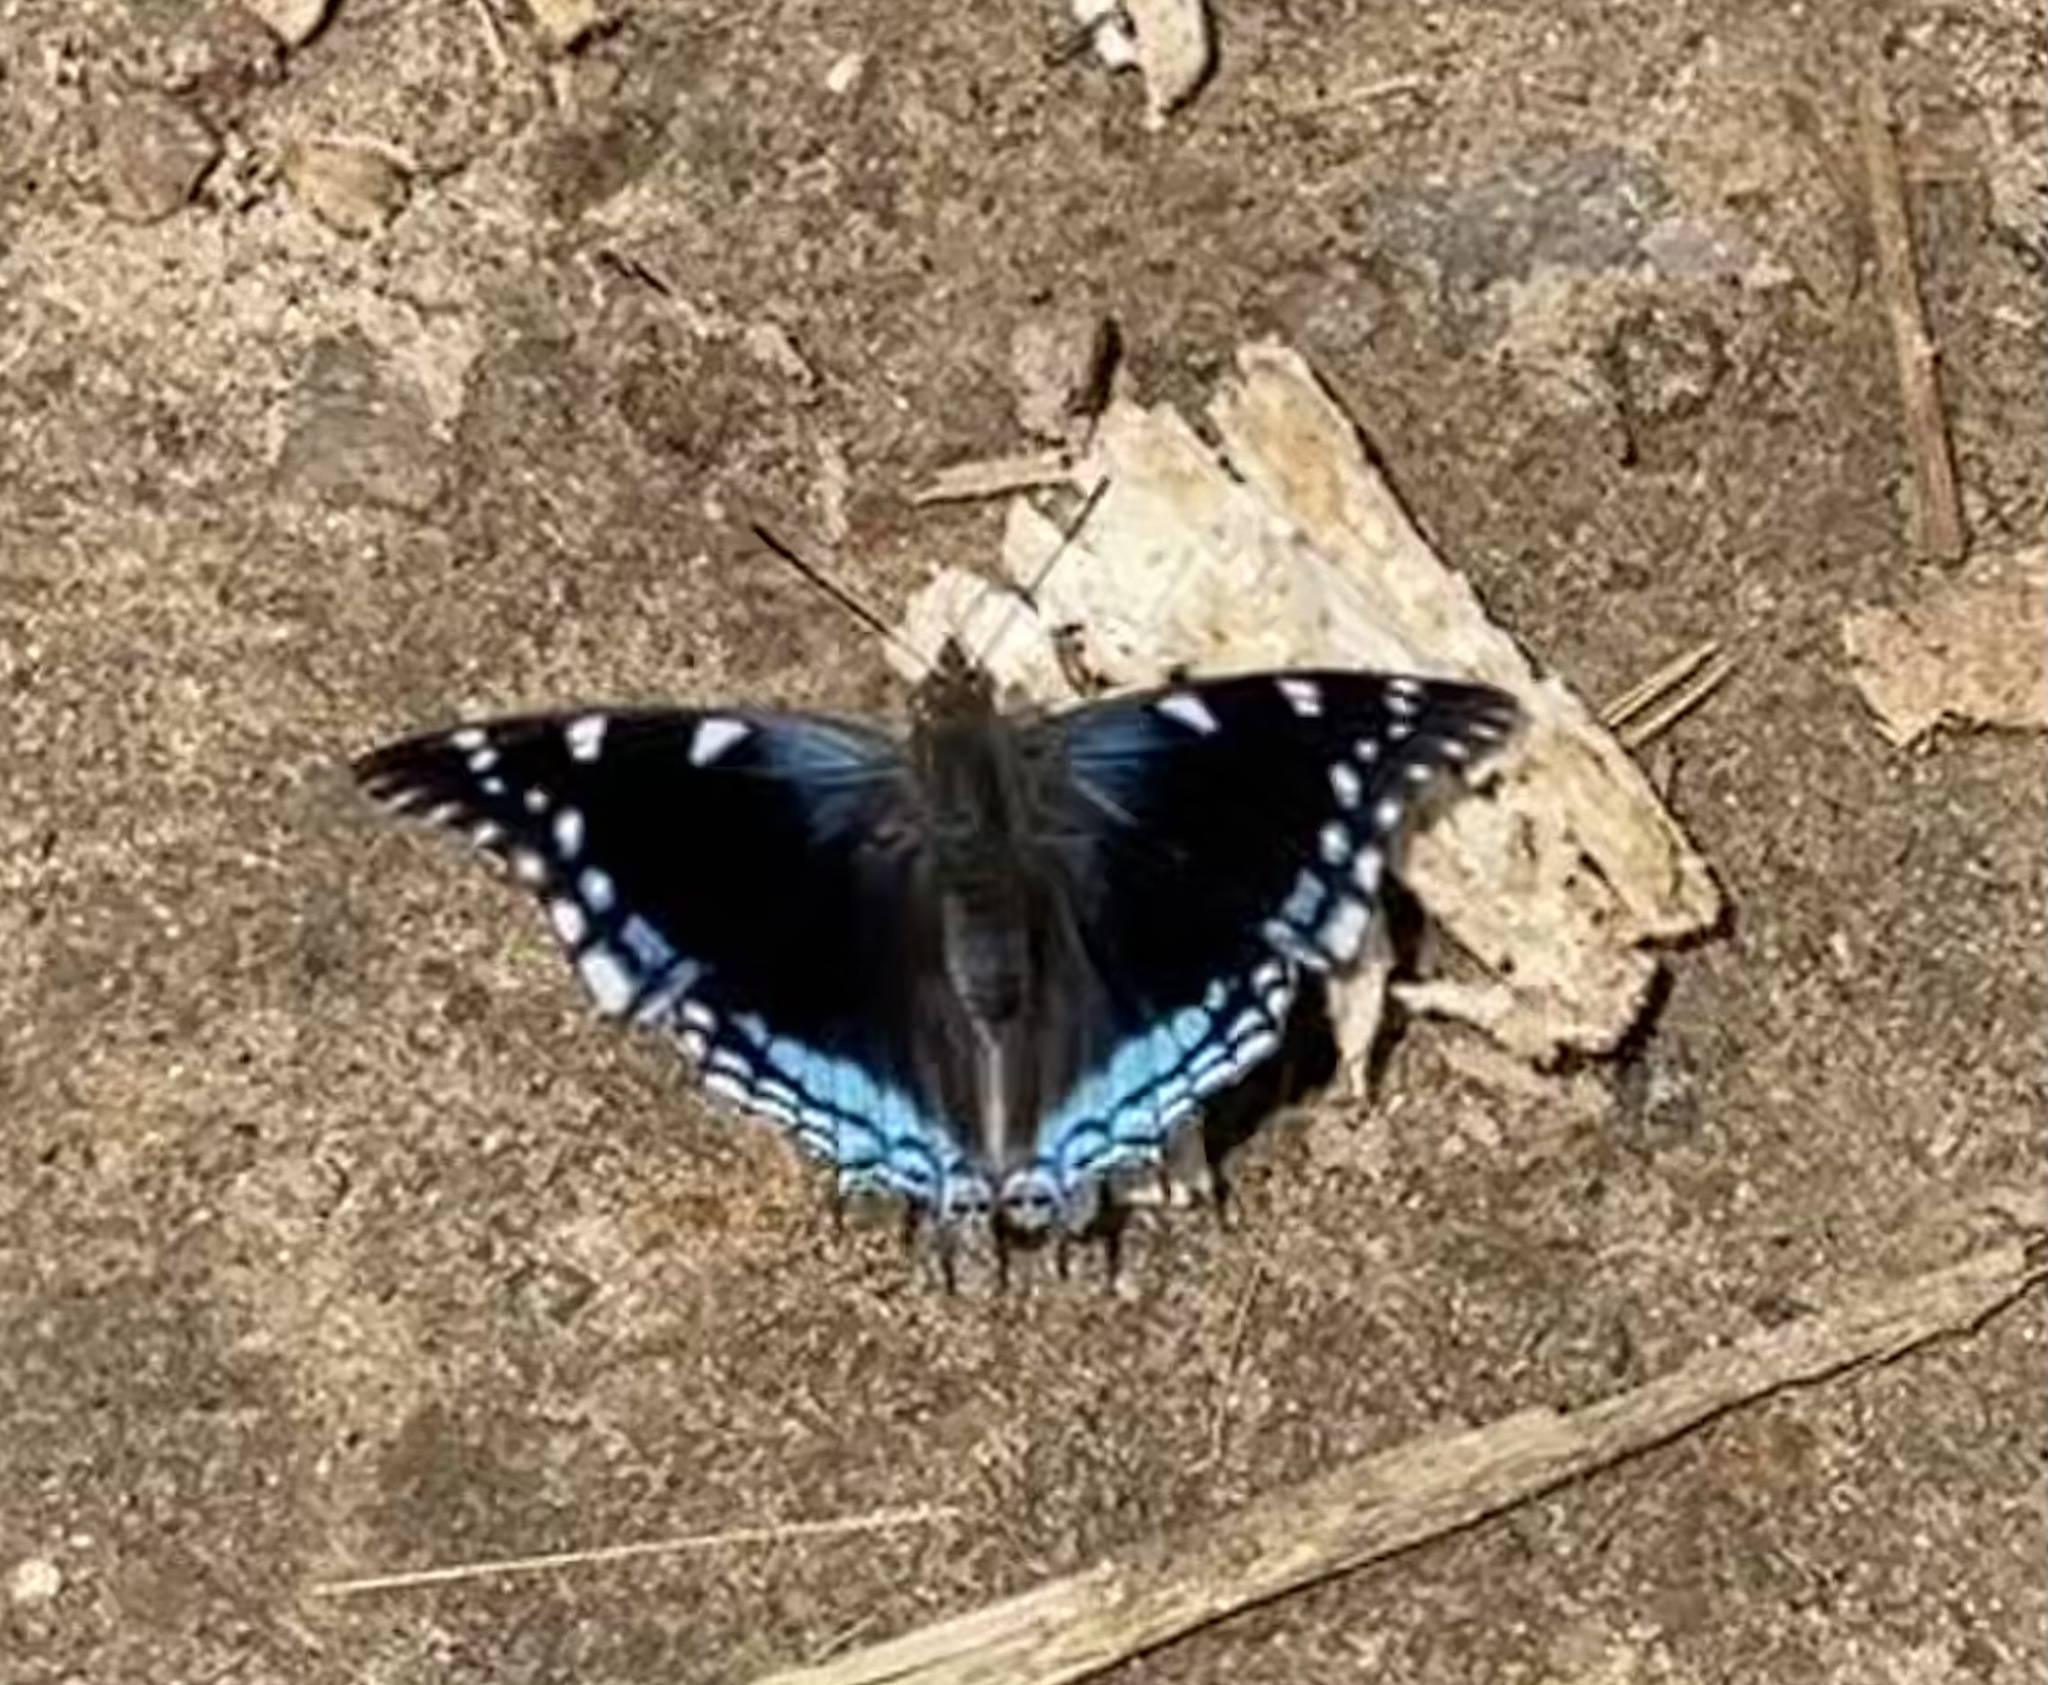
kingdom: Animalia
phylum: Arthropoda
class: Insecta
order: Lepidoptera
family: Nymphalidae
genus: Charaxes
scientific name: Charaxes guderiana
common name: Blue-spangled charaxes
